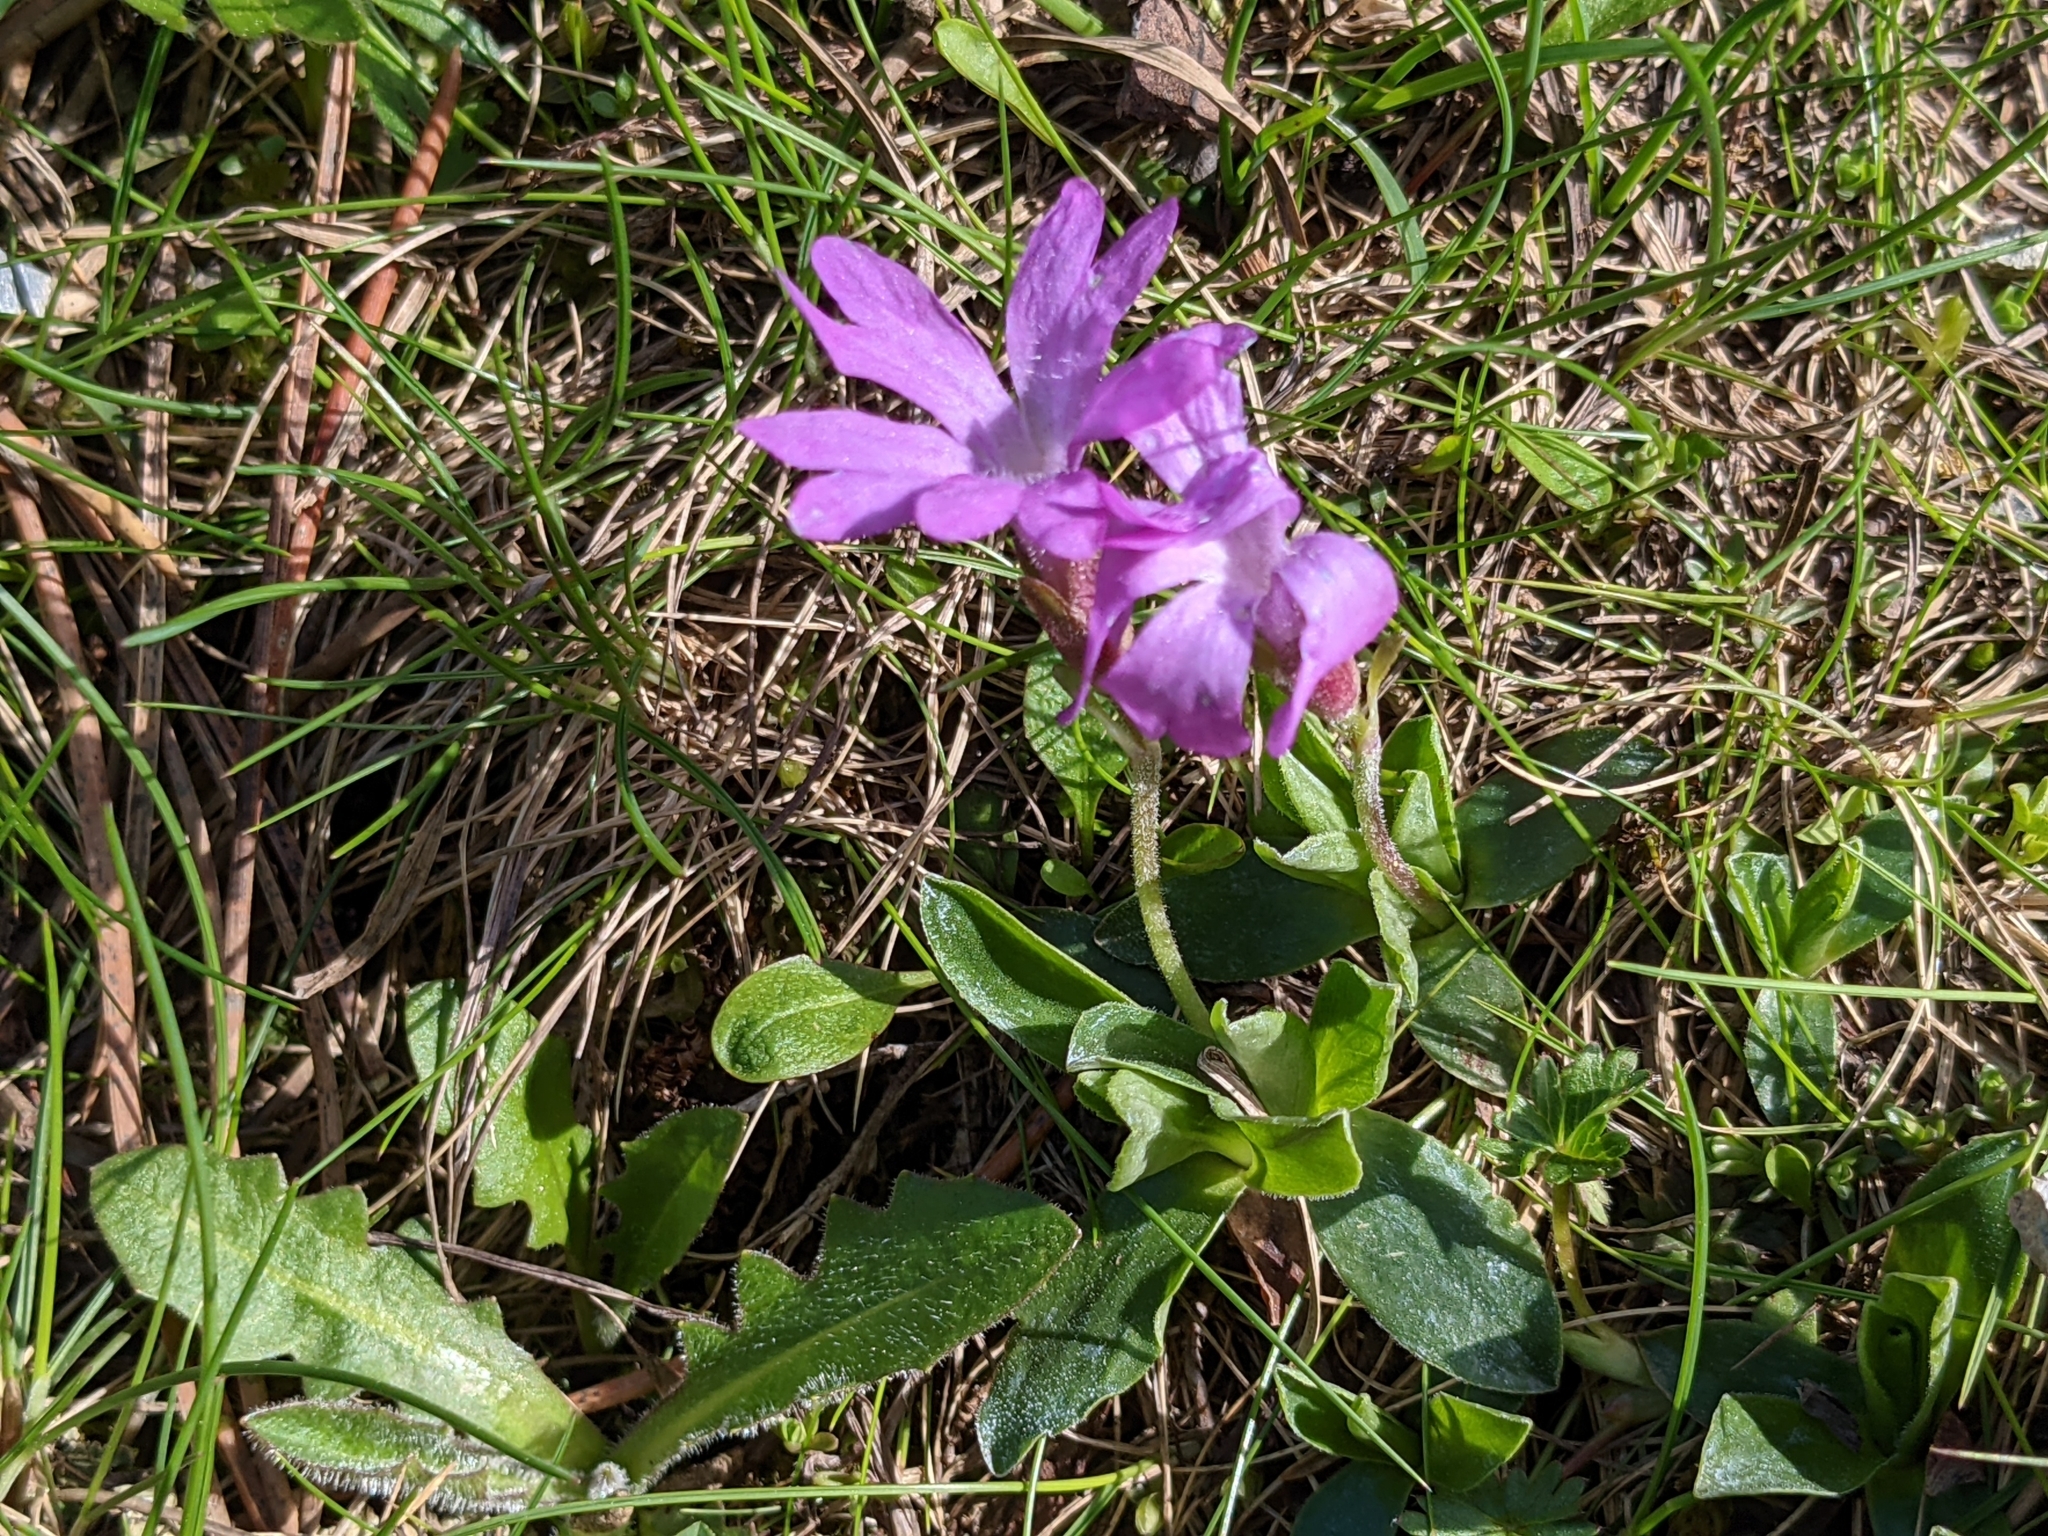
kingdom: Plantae
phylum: Tracheophyta
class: Magnoliopsida
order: Ericales
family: Primulaceae
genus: Primula
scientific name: Primula integrifolia
